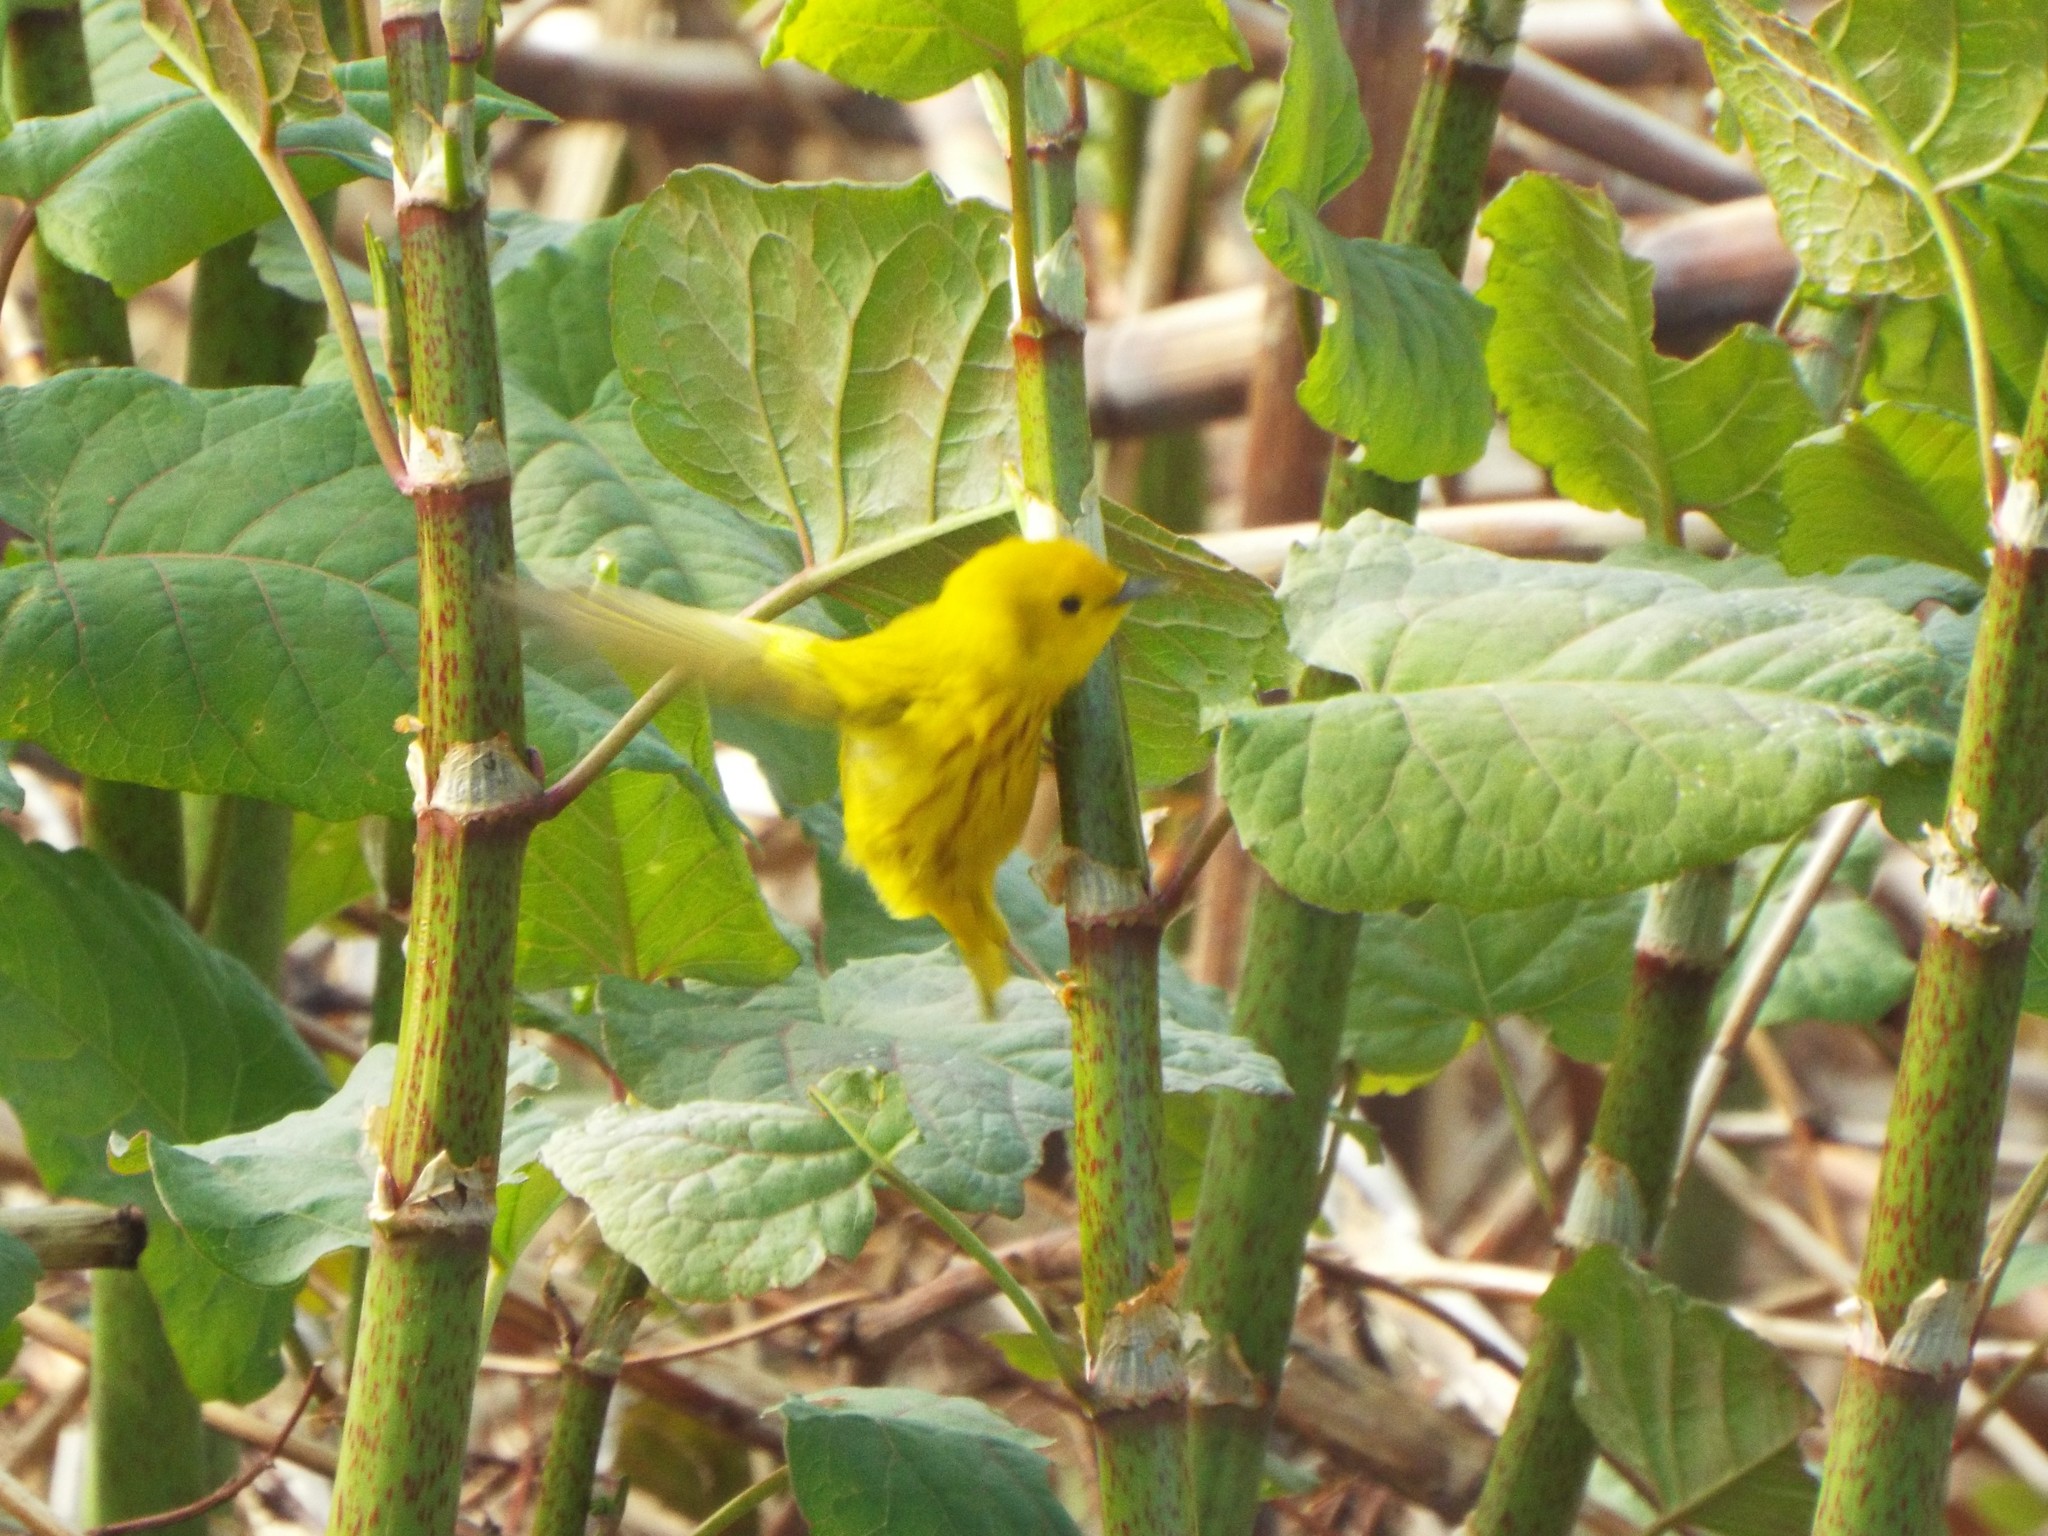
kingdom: Animalia
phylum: Chordata
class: Aves
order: Passeriformes
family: Parulidae
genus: Setophaga
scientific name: Setophaga petechia
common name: Yellow warbler
